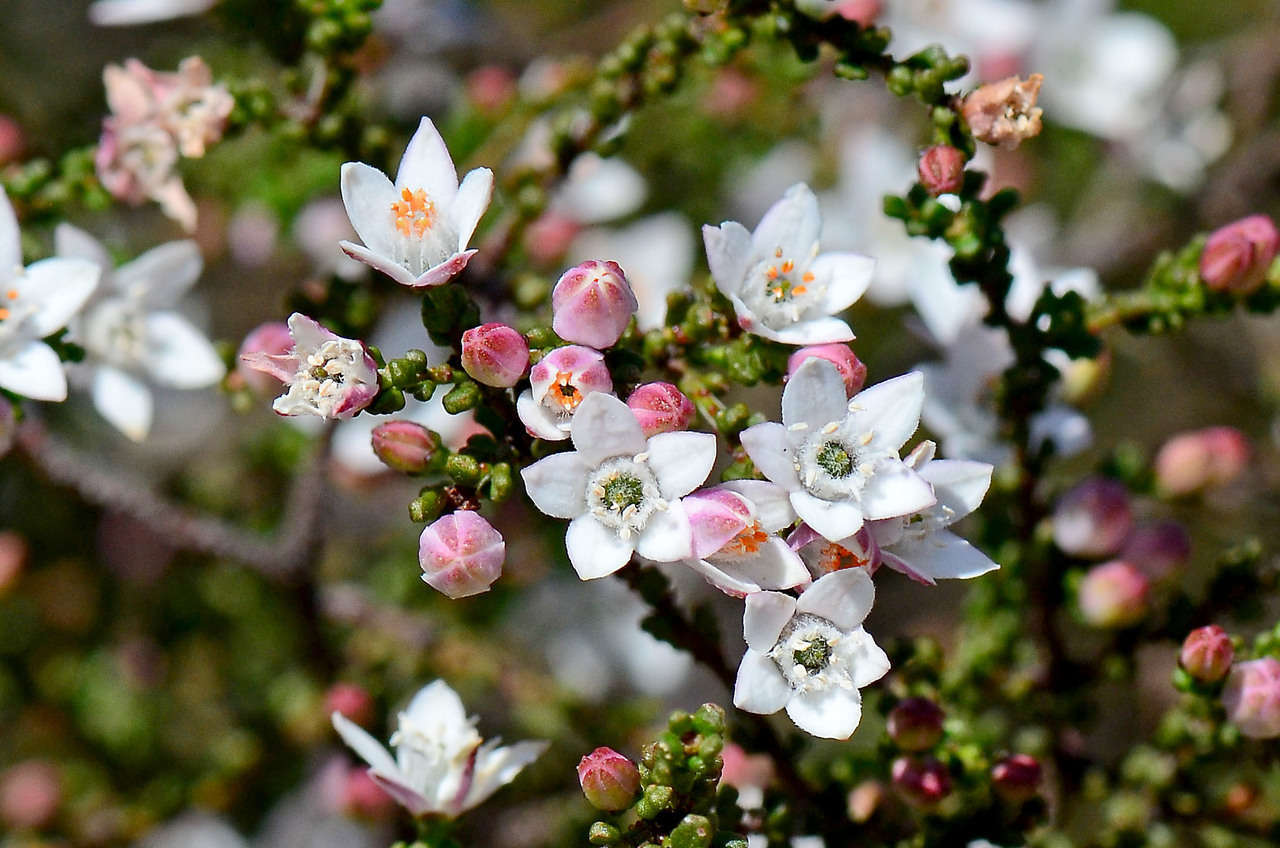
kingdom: Plantae
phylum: Tracheophyta
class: Magnoliopsida
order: Sapindales
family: Rutaceae
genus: Philotheca
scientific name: Philotheca angustifolia
